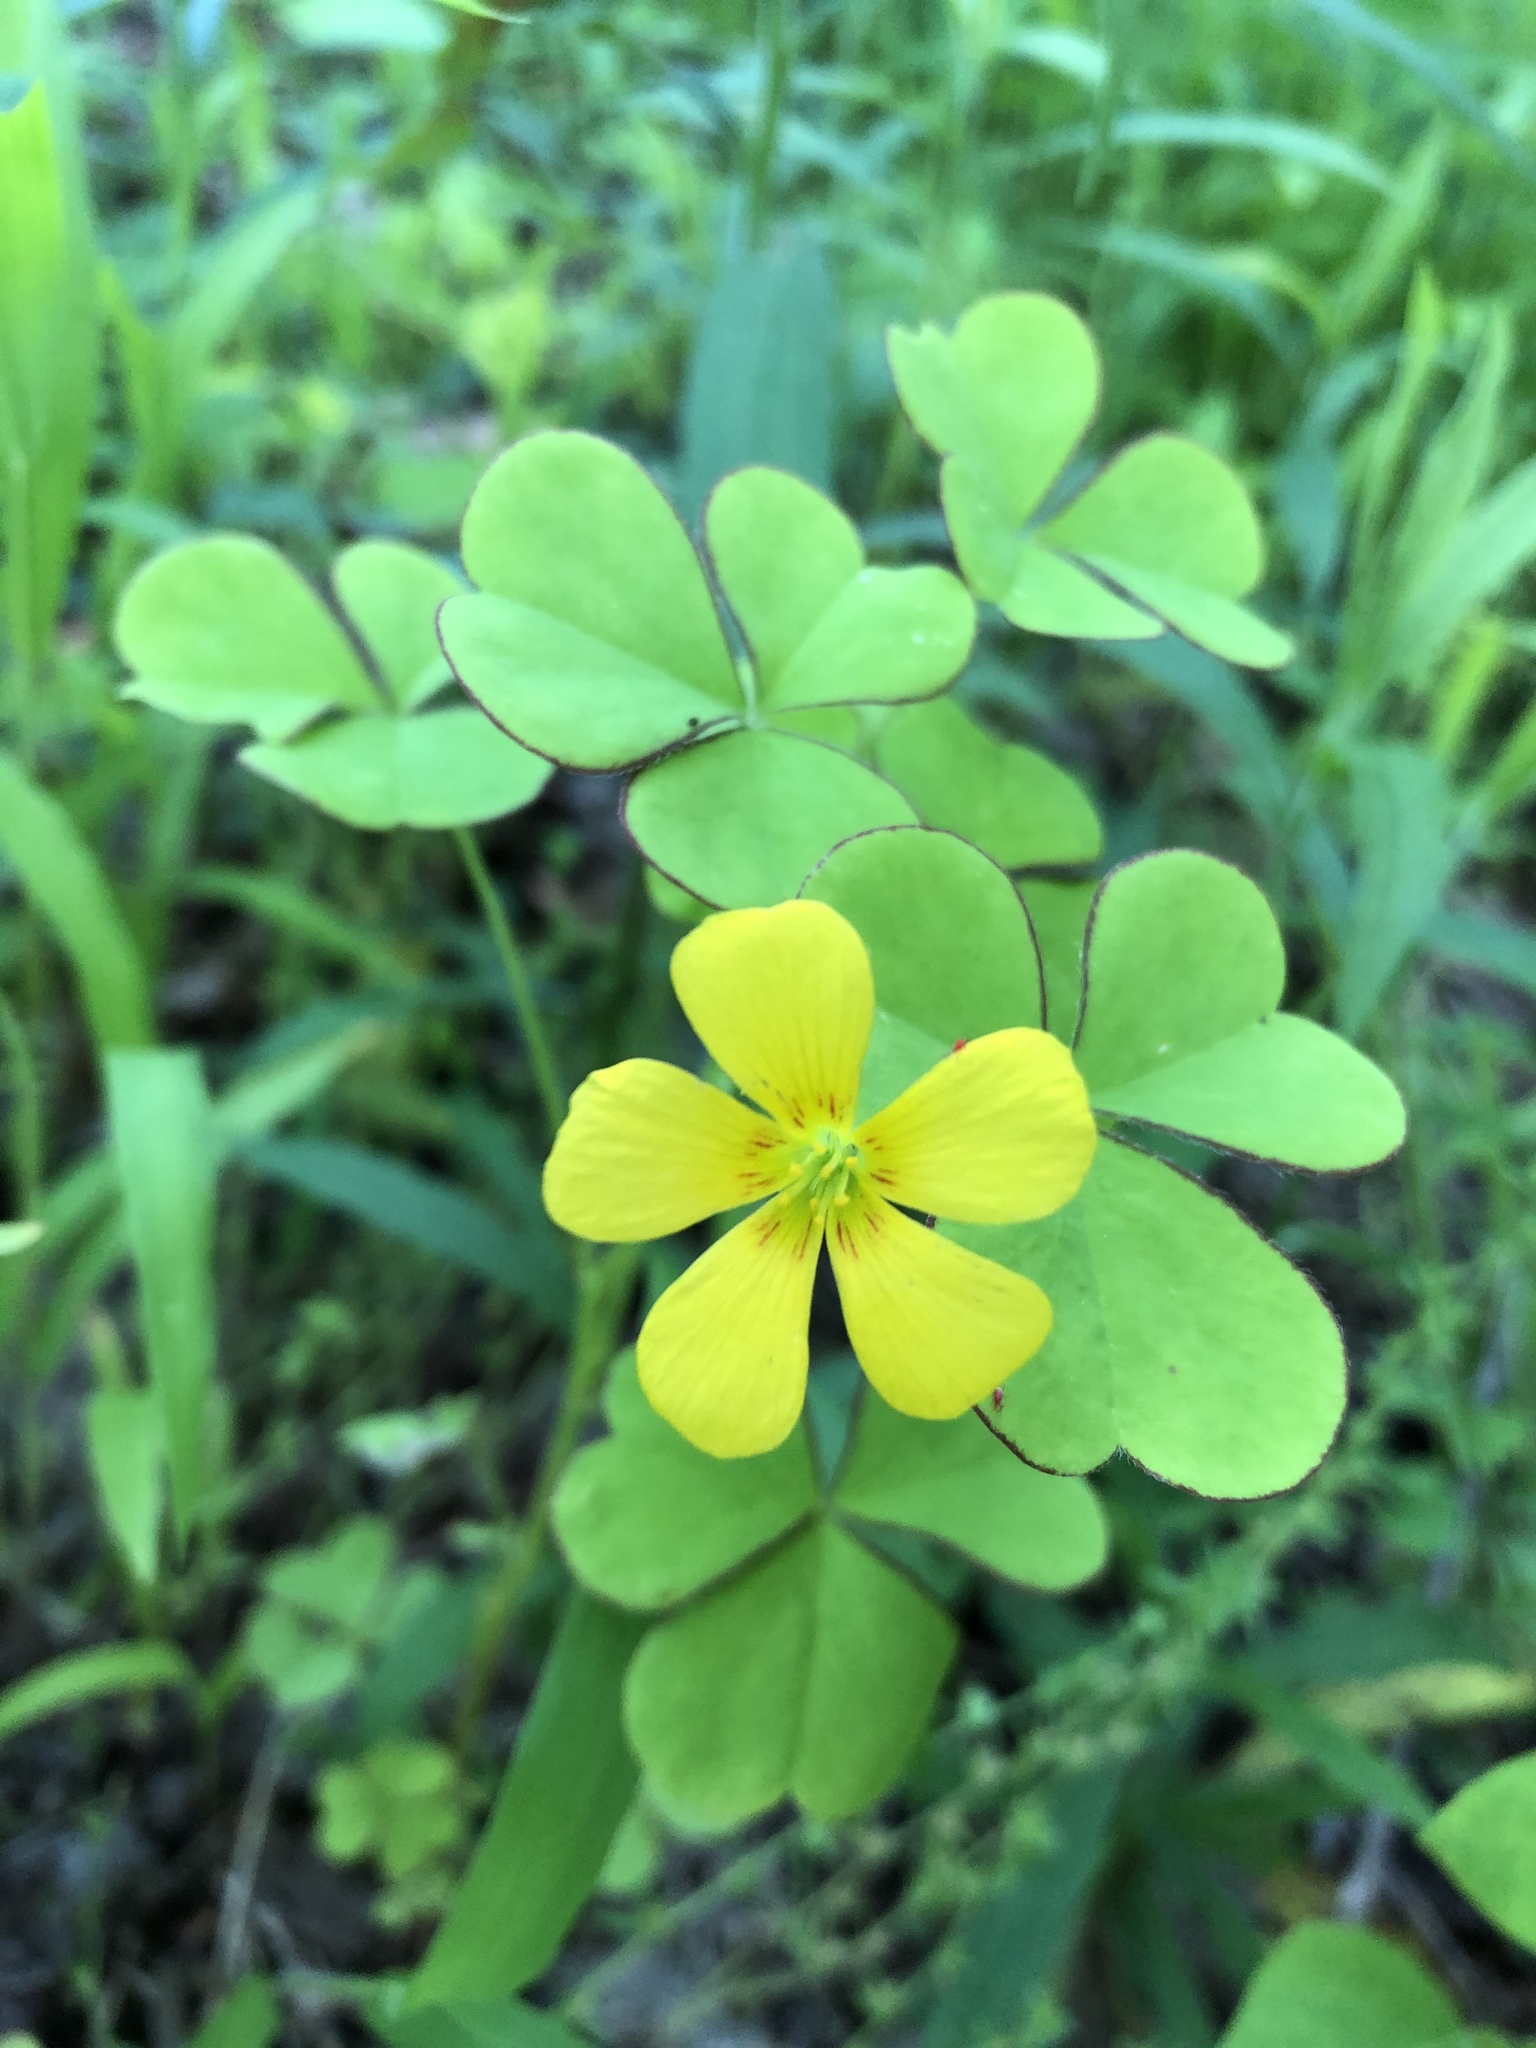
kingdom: Plantae
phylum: Tracheophyta
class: Magnoliopsida
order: Oxalidales
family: Oxalidaceae
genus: Oxalis
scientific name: Oxalis grandis
